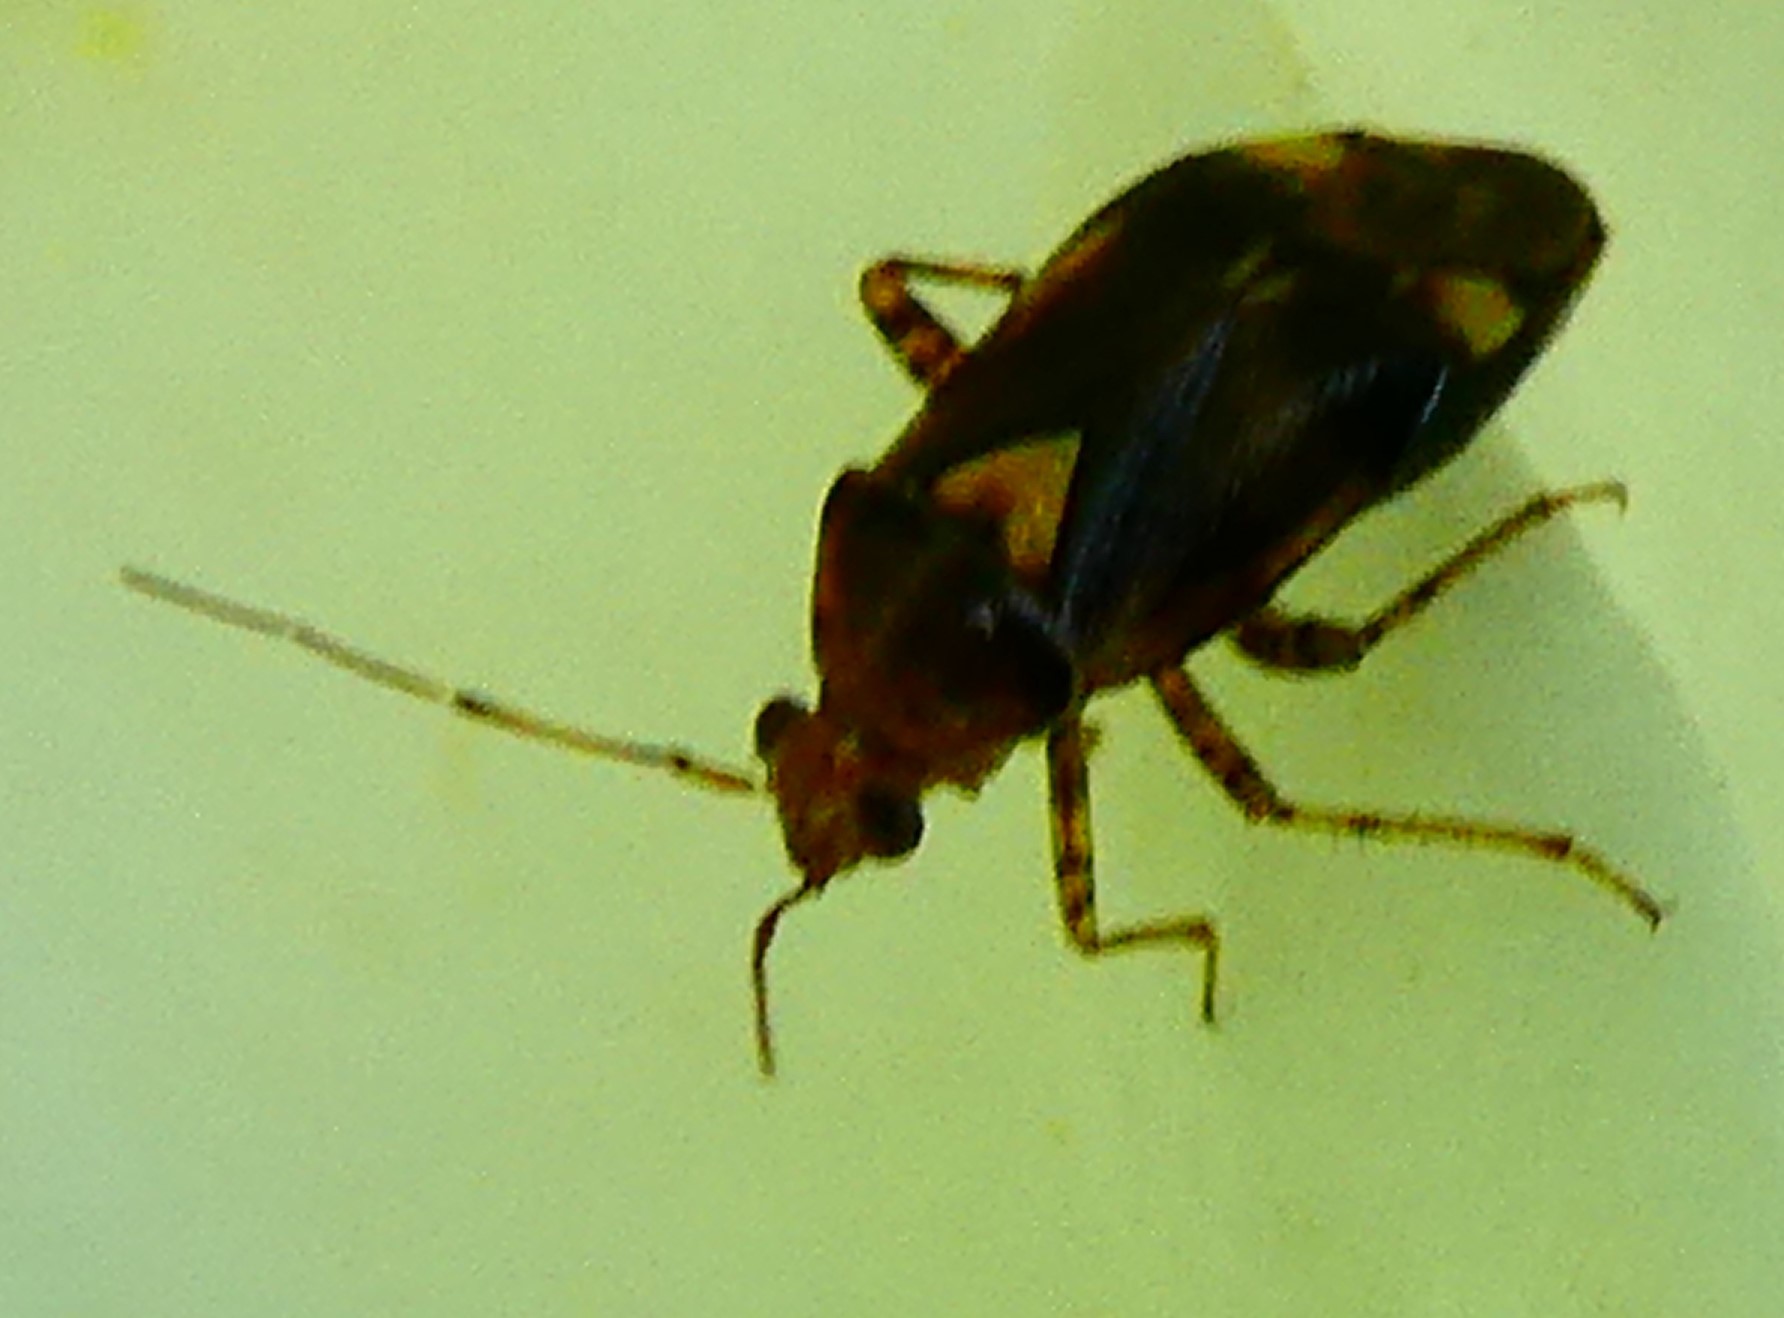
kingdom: Animalia
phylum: Arthropoda
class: Insecta
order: Hemiptera
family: Miridae
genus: Liocoris
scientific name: Liocoris tripustulatus
